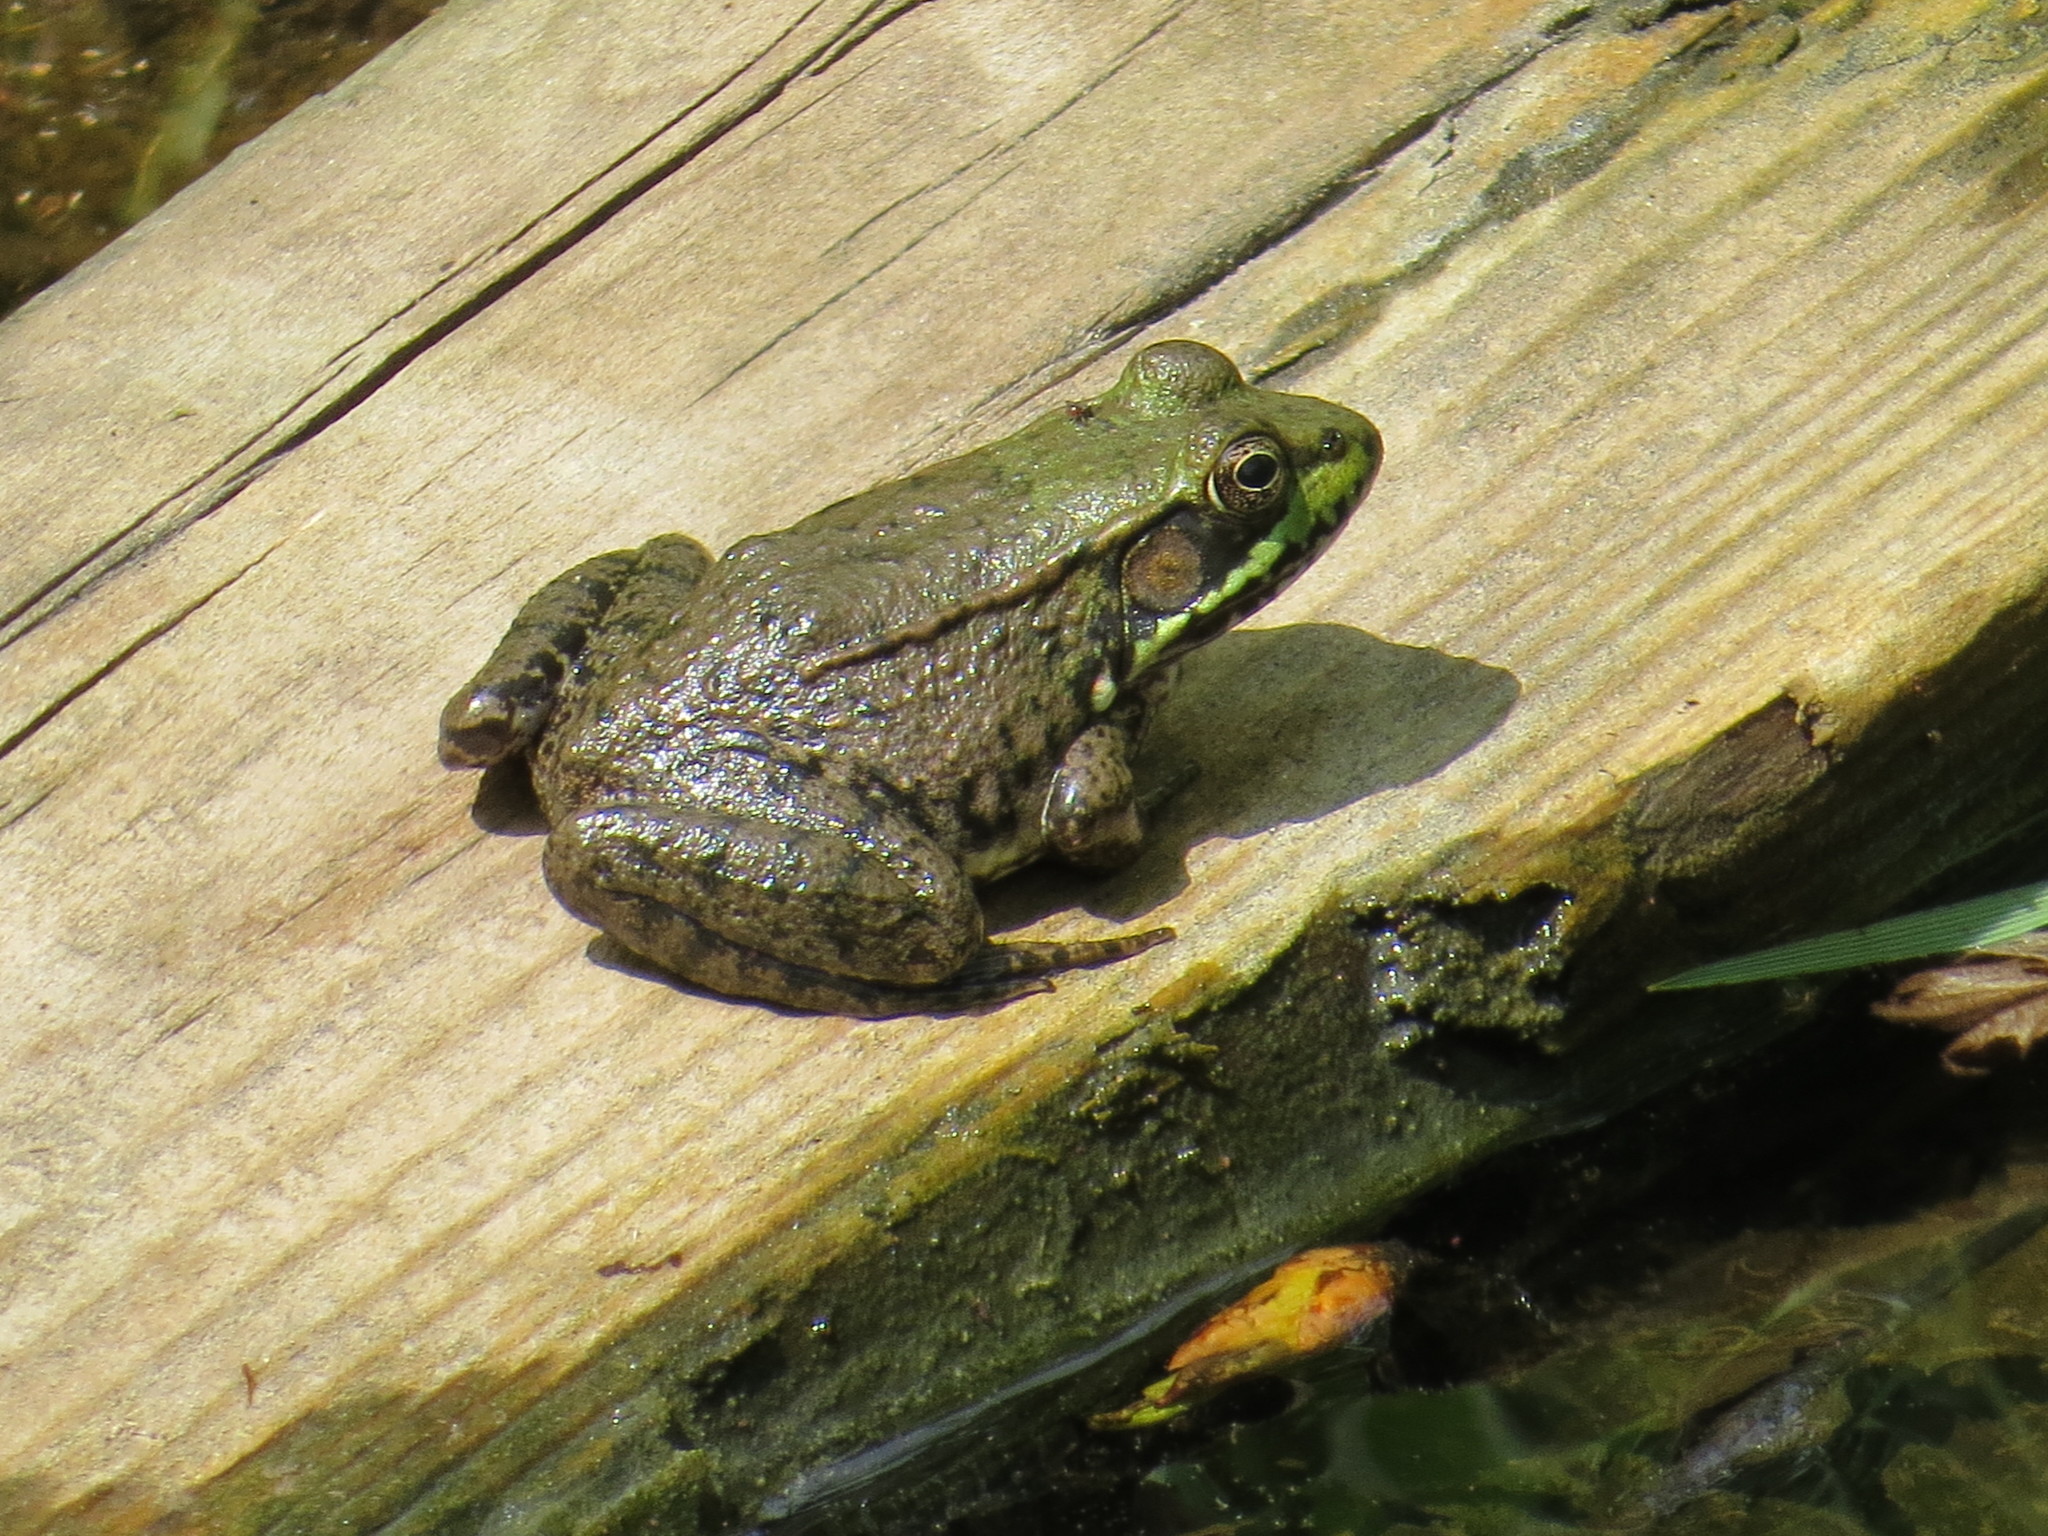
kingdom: Animalia
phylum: Chordata
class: Amphibia
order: Anura
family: Ranidae
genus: Lithobates
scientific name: Lithobates clamitans
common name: Green frog
